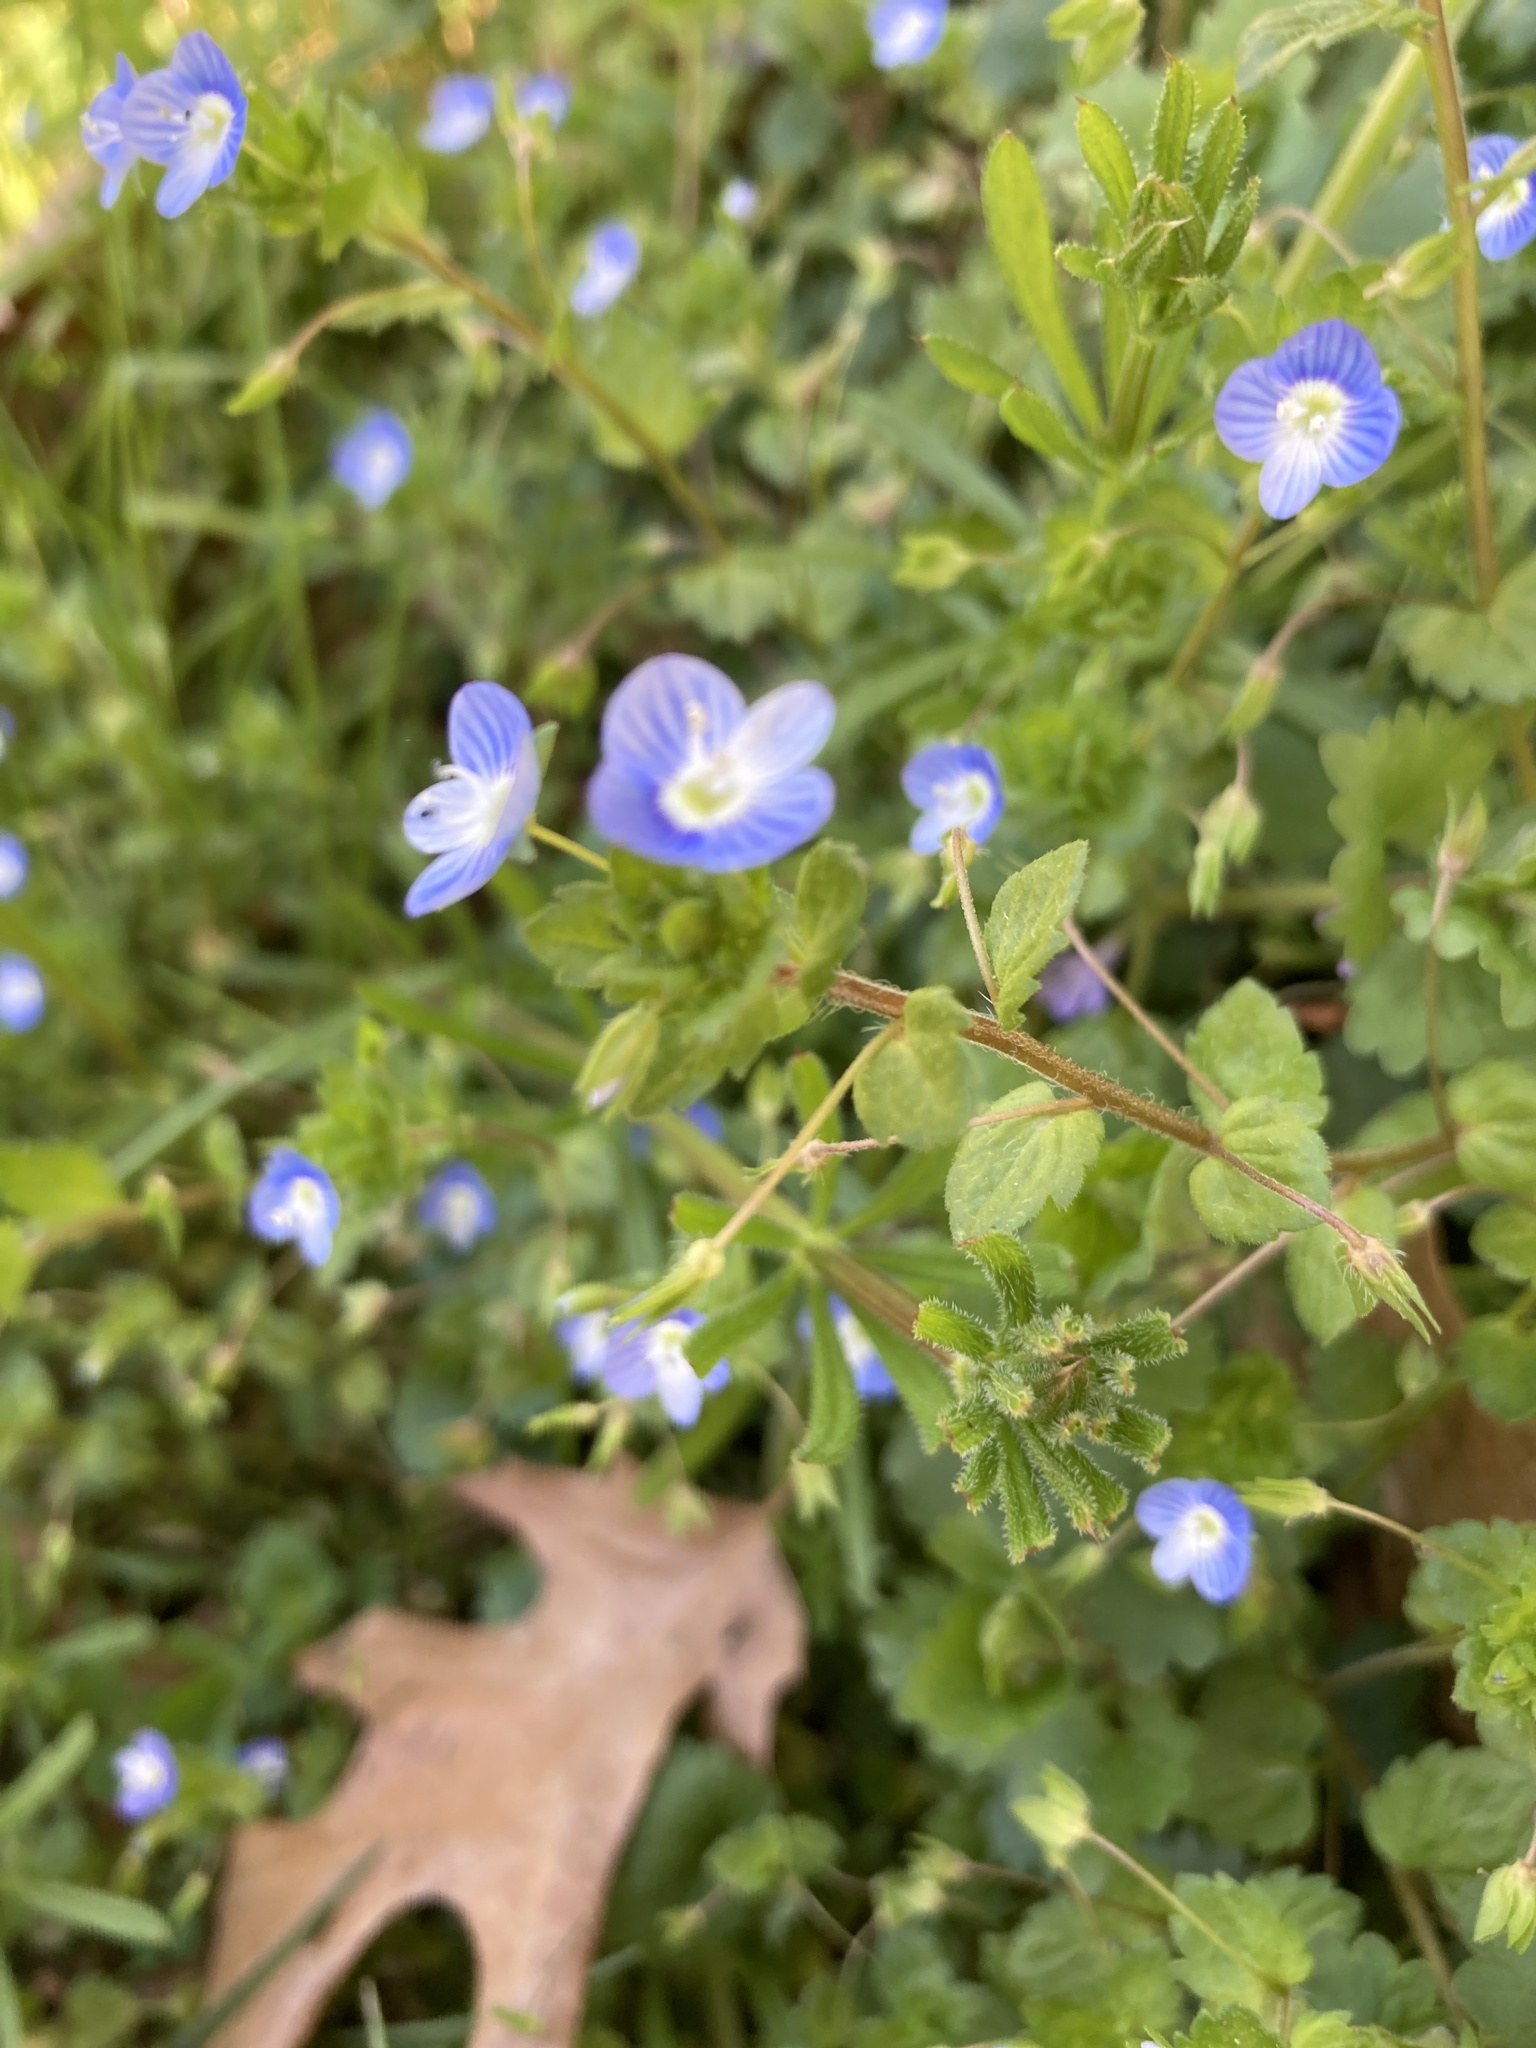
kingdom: Plantae
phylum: Tracheophyta
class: Magnoliopsida
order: Lamiales
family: Plantaginaceae
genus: Veronica
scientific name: Veronica persica
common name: Common field-speedwell
